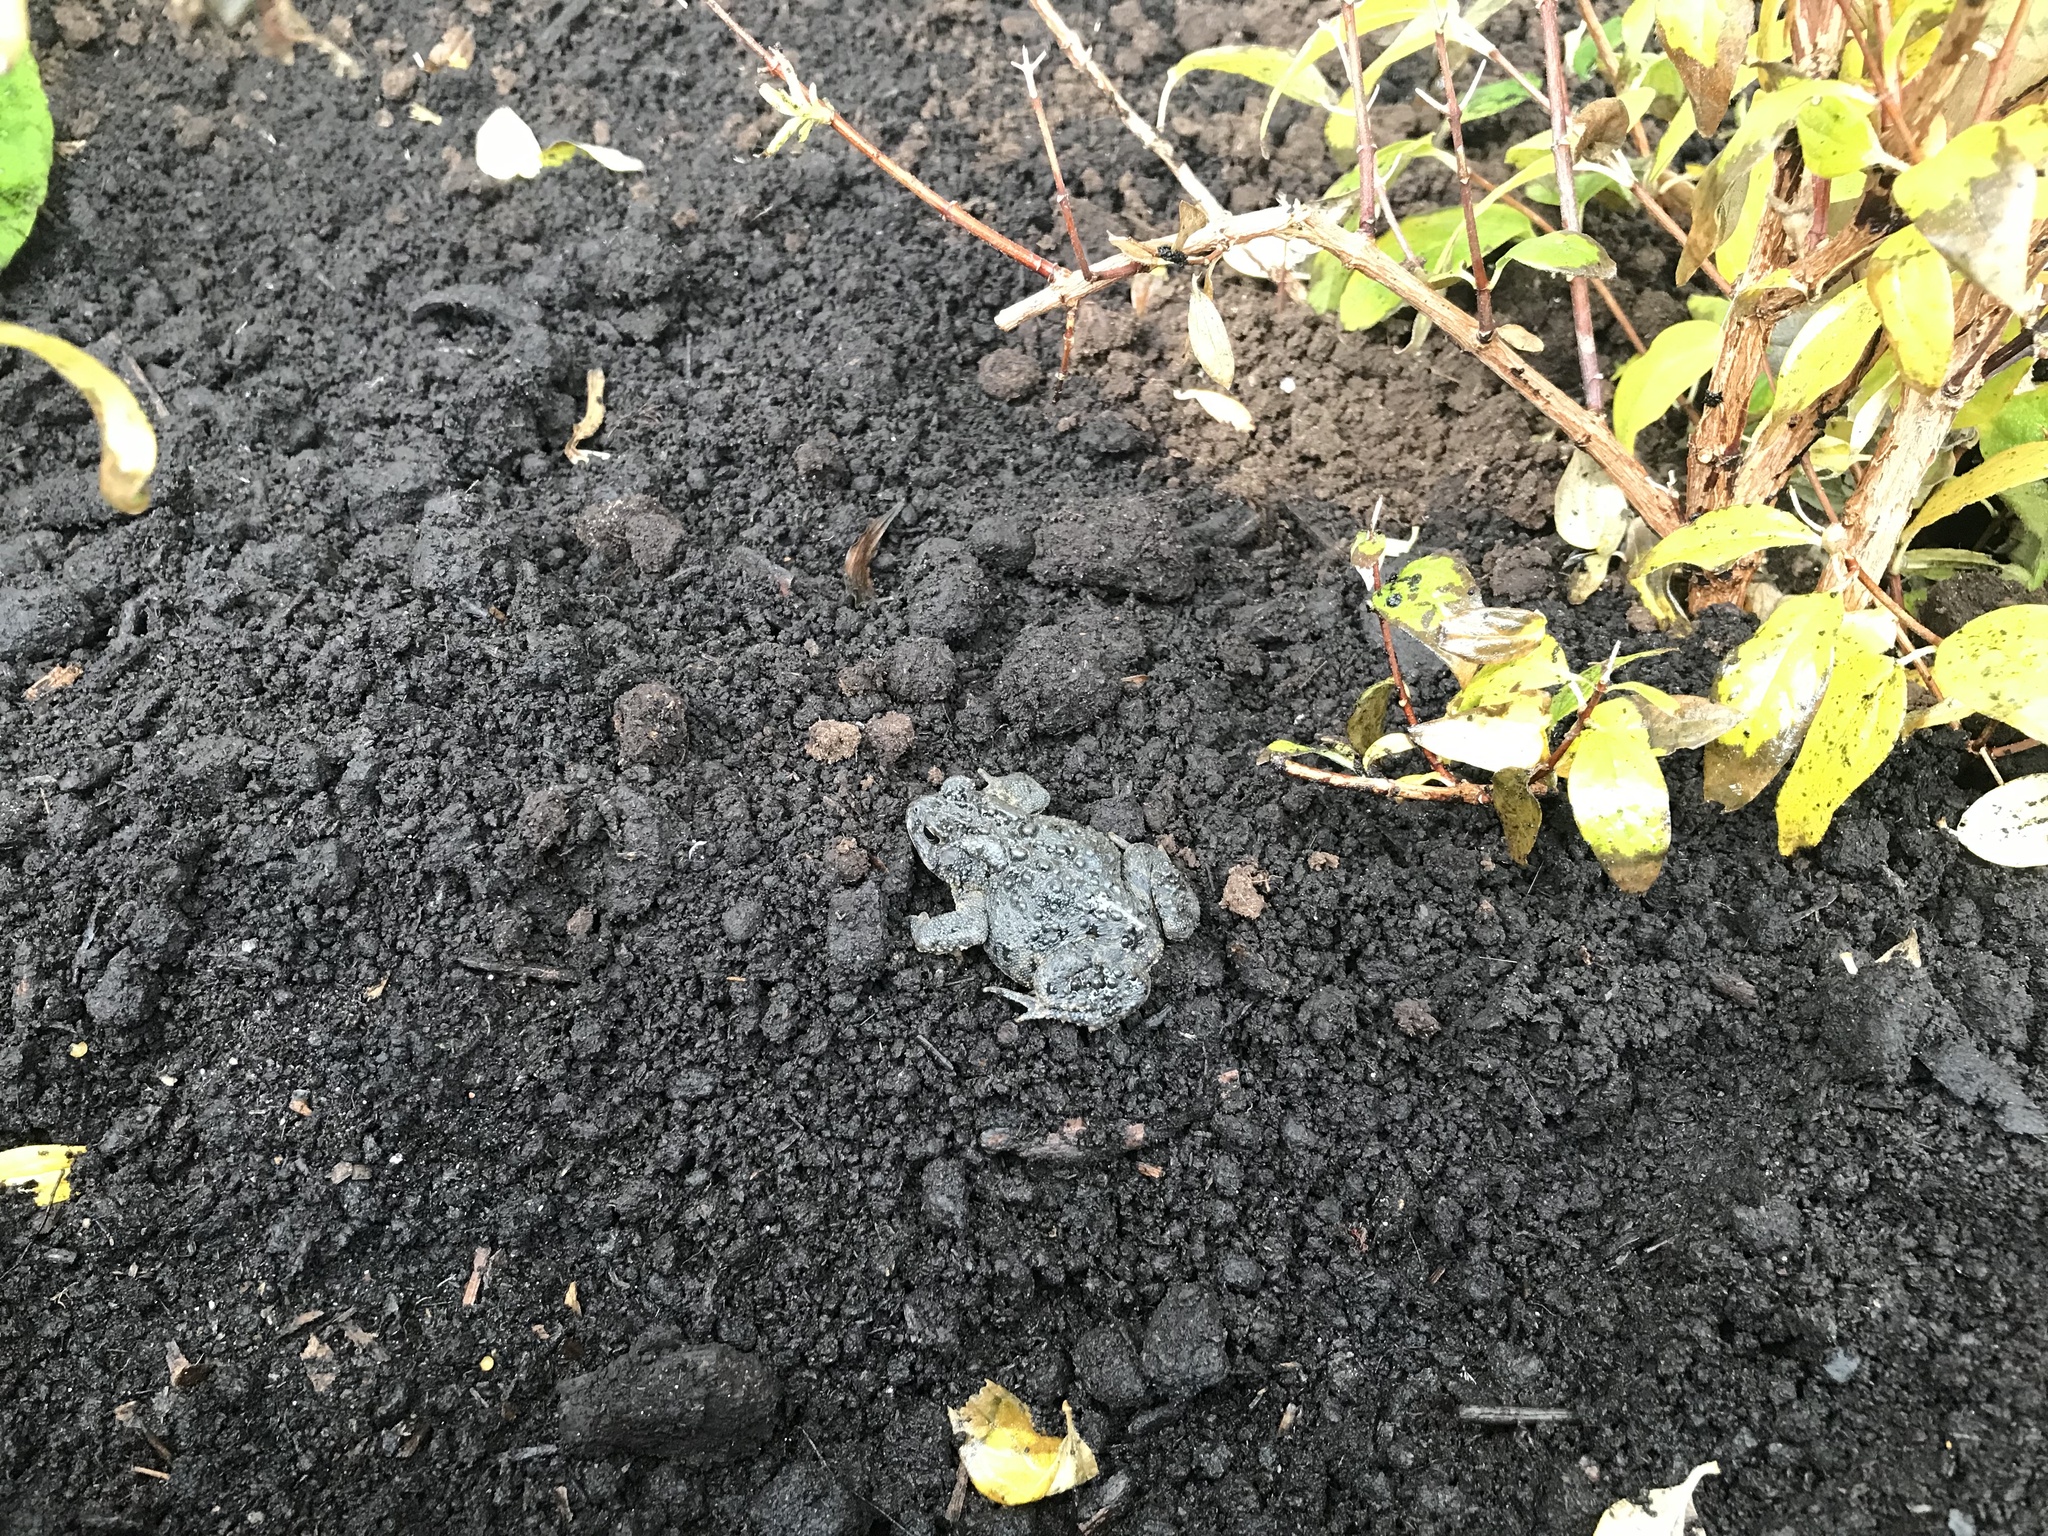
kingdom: Animalia
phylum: Chordata
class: Amphibia
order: Anura
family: Bufonidae
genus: Anaxyrus
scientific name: Anaxyrus americanus
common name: American toad
